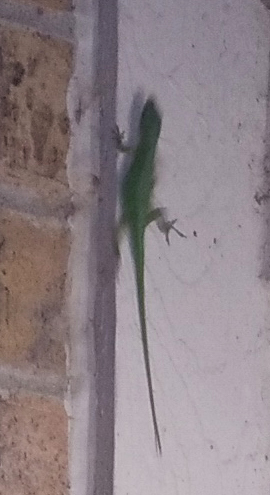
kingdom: Animalia
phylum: Chordata
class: Squamata
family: Dactyloidae
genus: Anolis
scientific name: Anolis carolinensis
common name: Green anole
